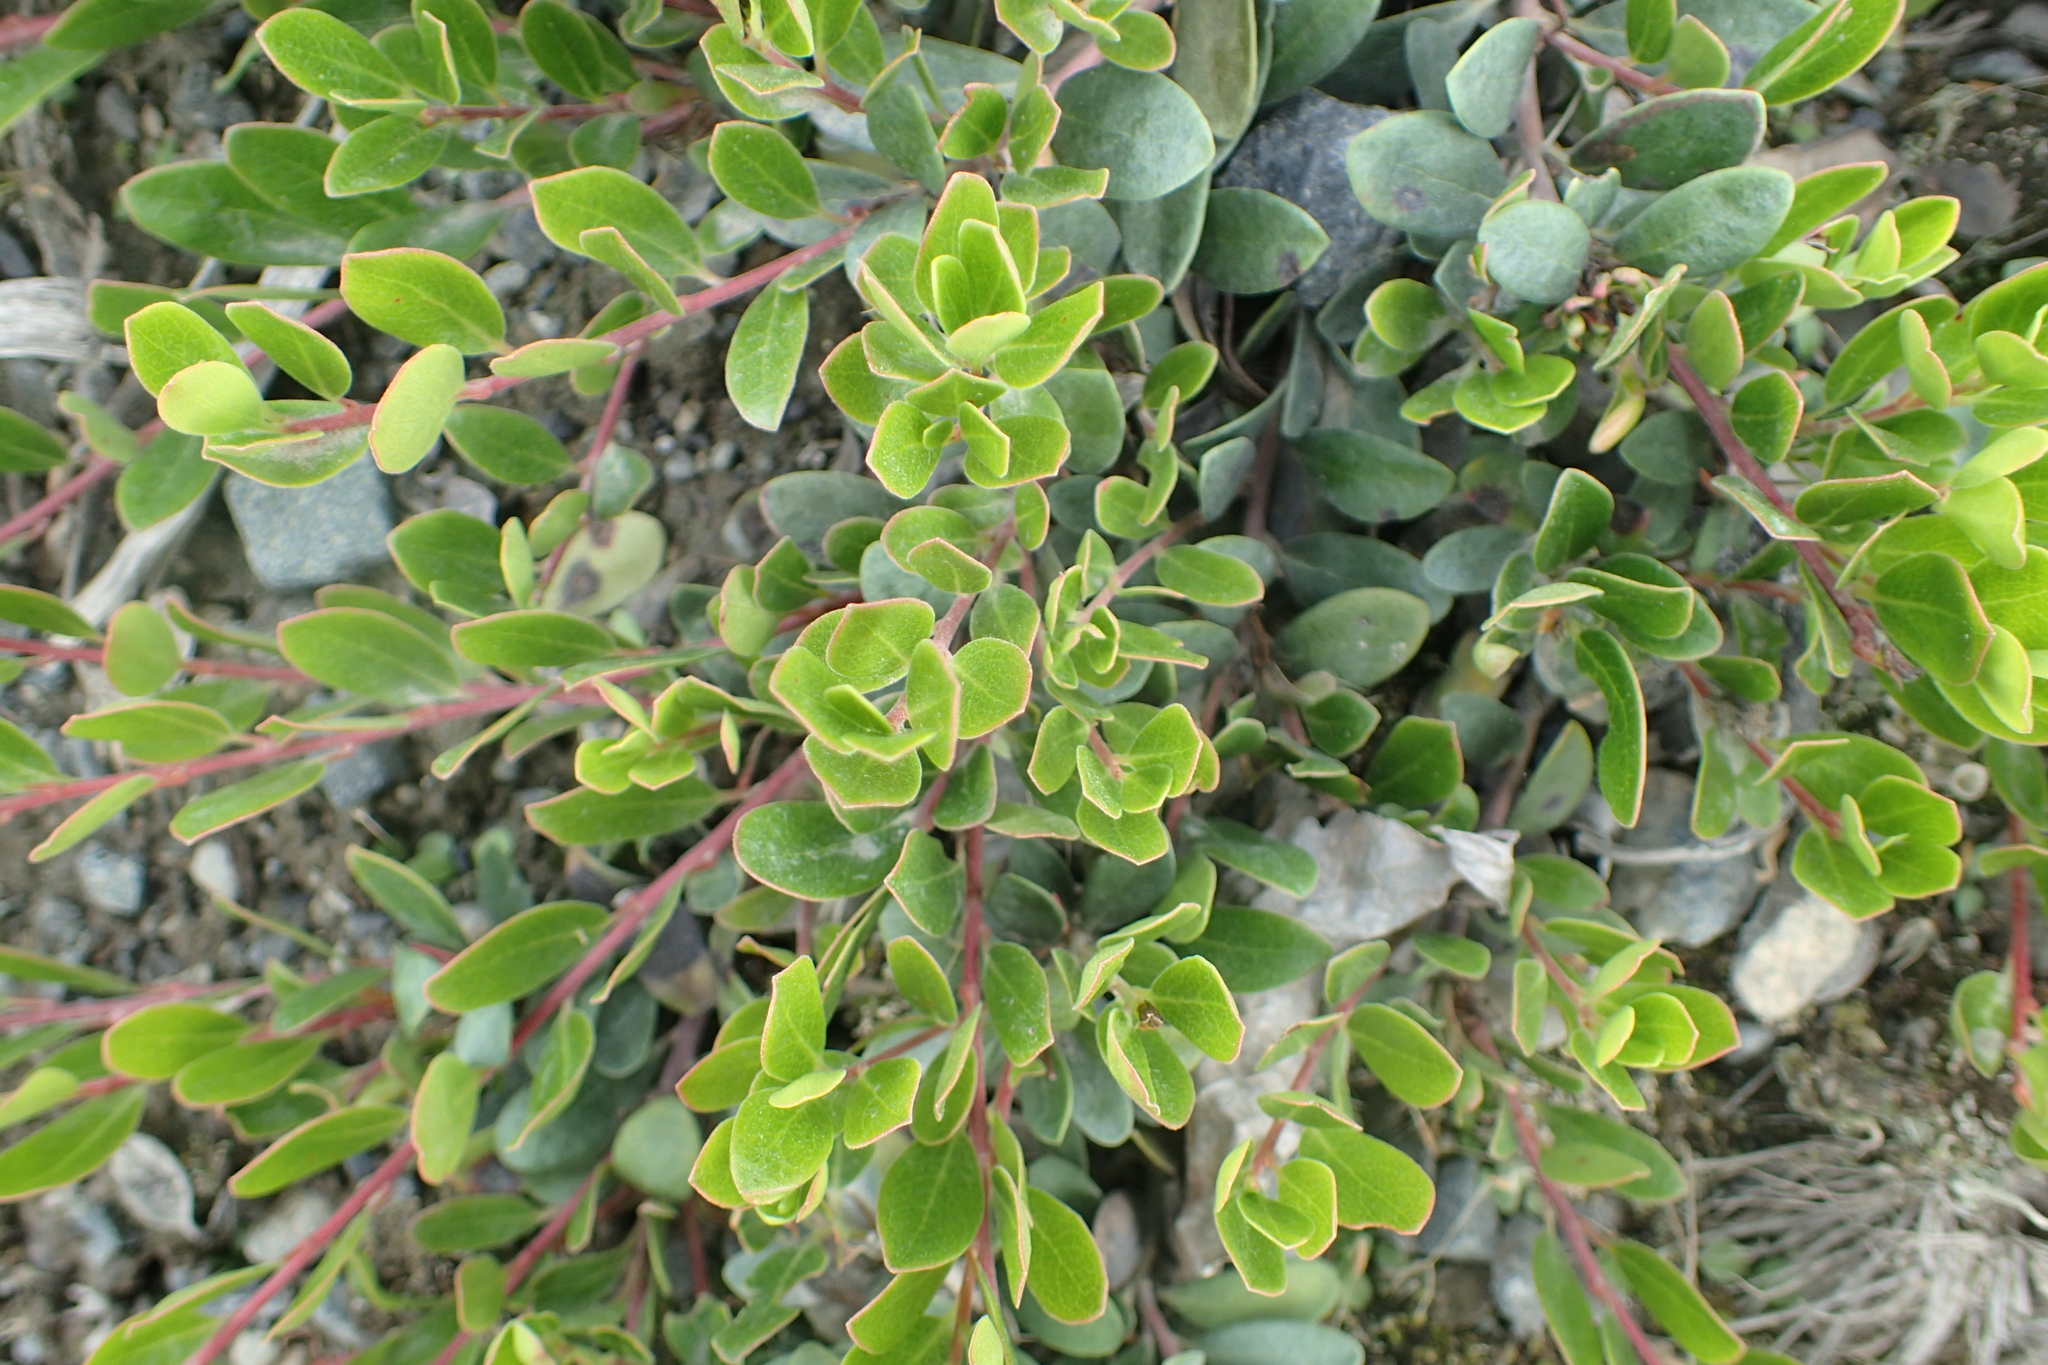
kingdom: Plantae
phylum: Tracheophyta
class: Magnoliopsida
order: Ericales
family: Ericaceae
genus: Arctostaphylos
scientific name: Arctostaphylos uva-ursi
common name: Bearberry
